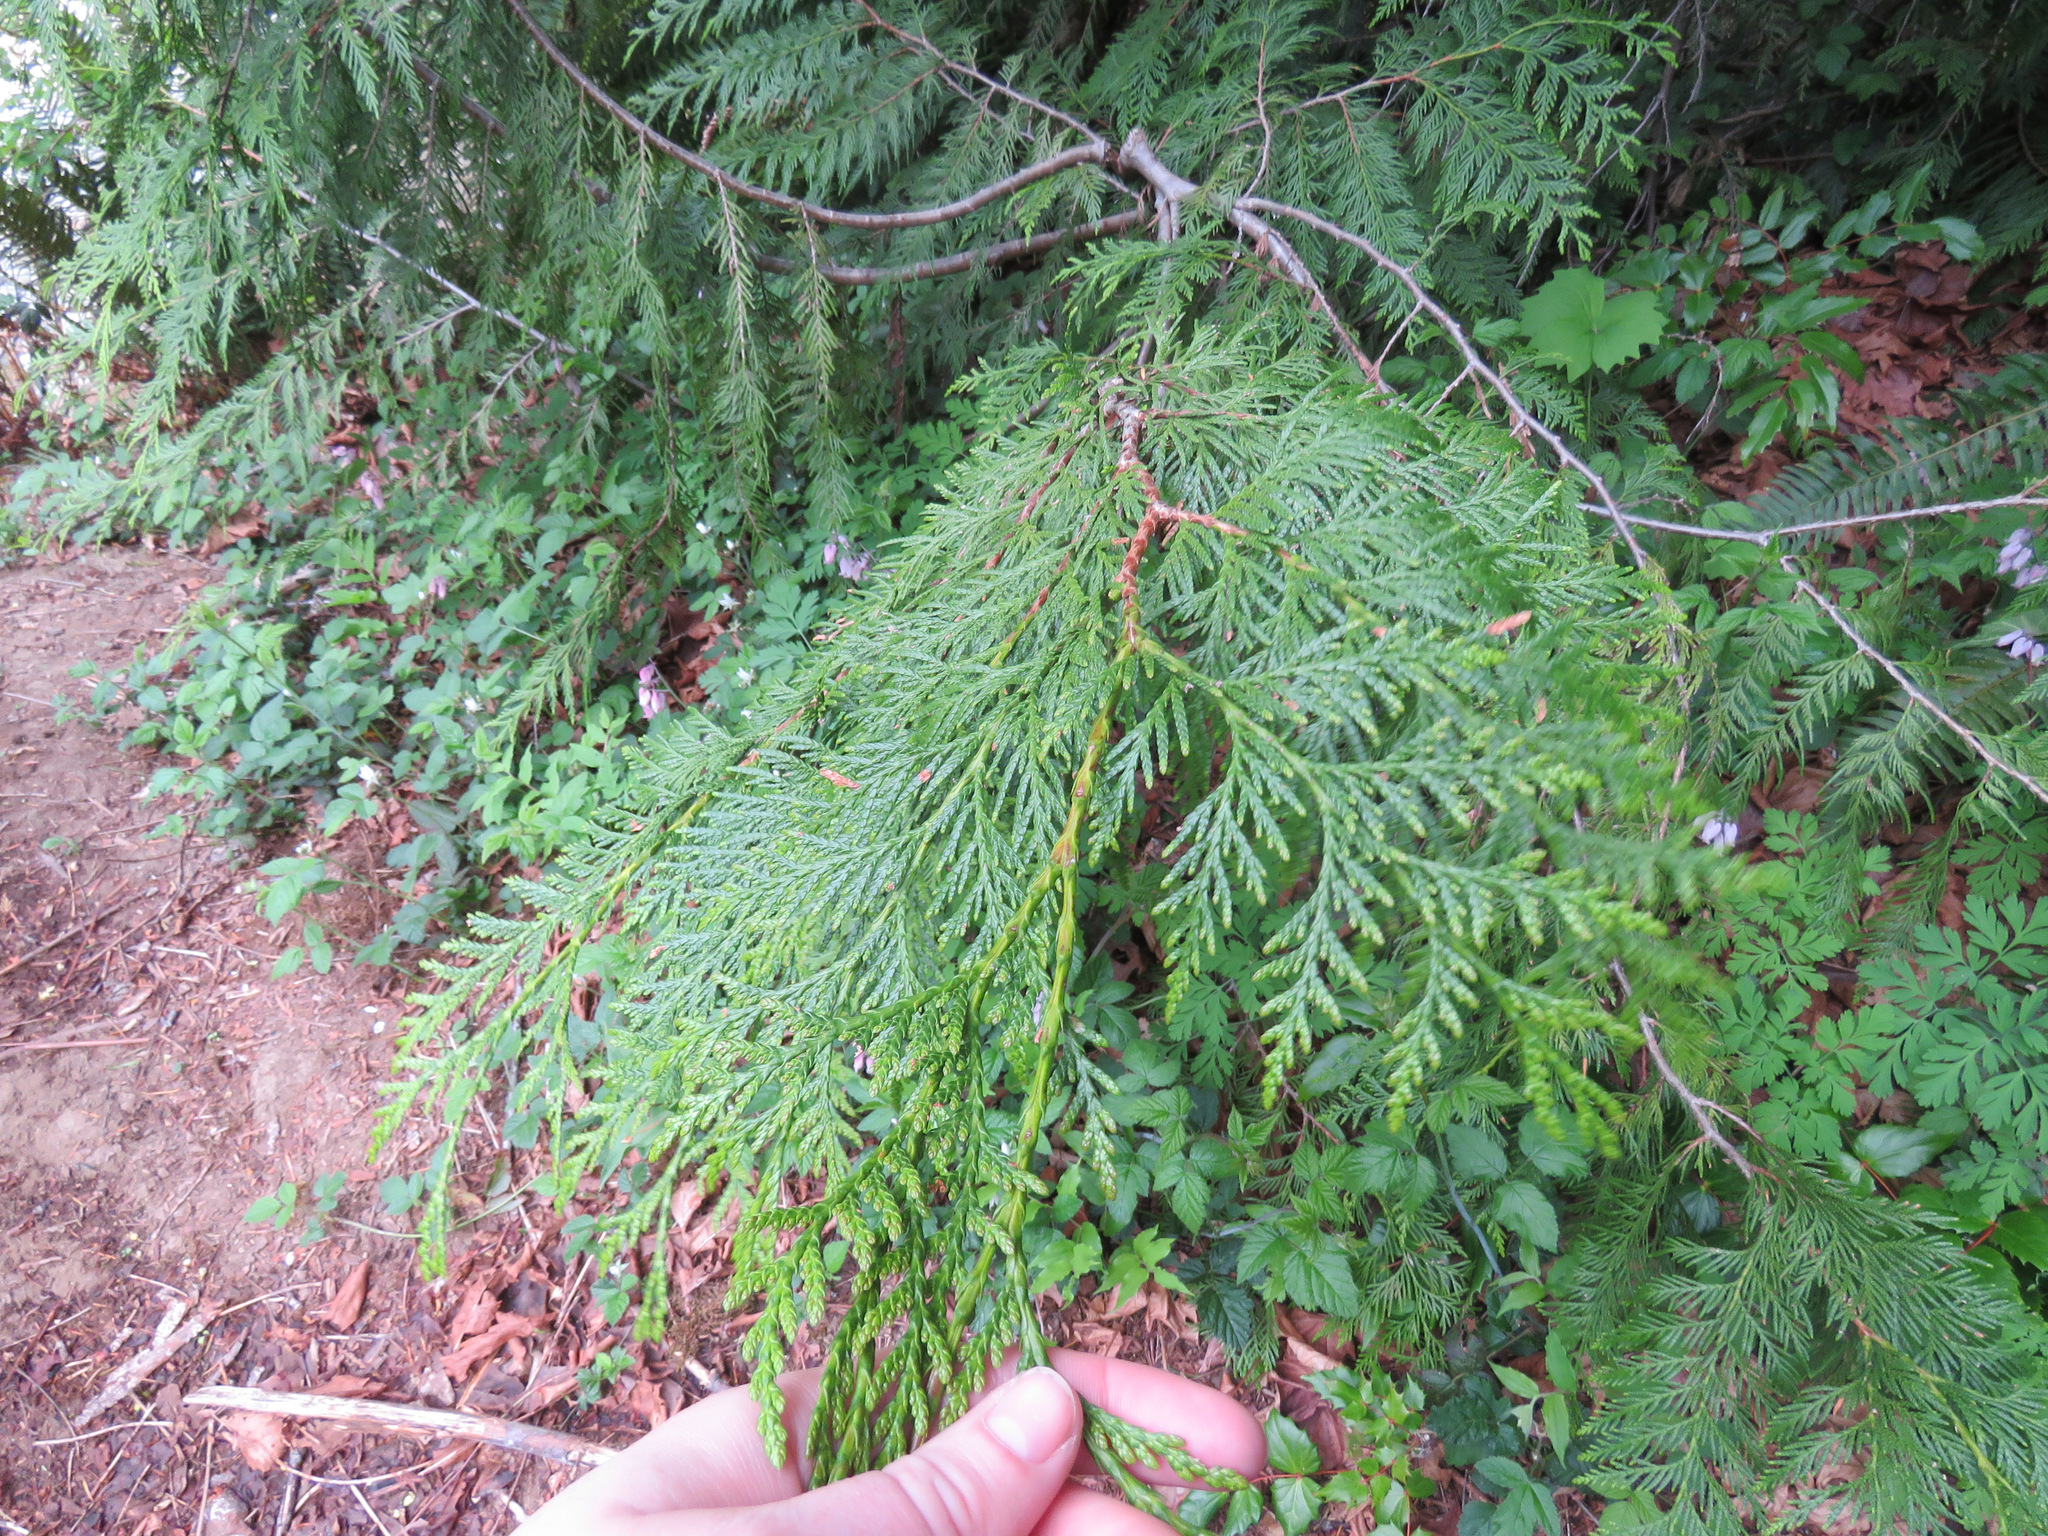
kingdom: Plantae
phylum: Tracheophyta
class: Pinopsida
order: Pinales
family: Cupressaceae
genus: Thuja
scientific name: Thuja plicata
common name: Western red-cedar
